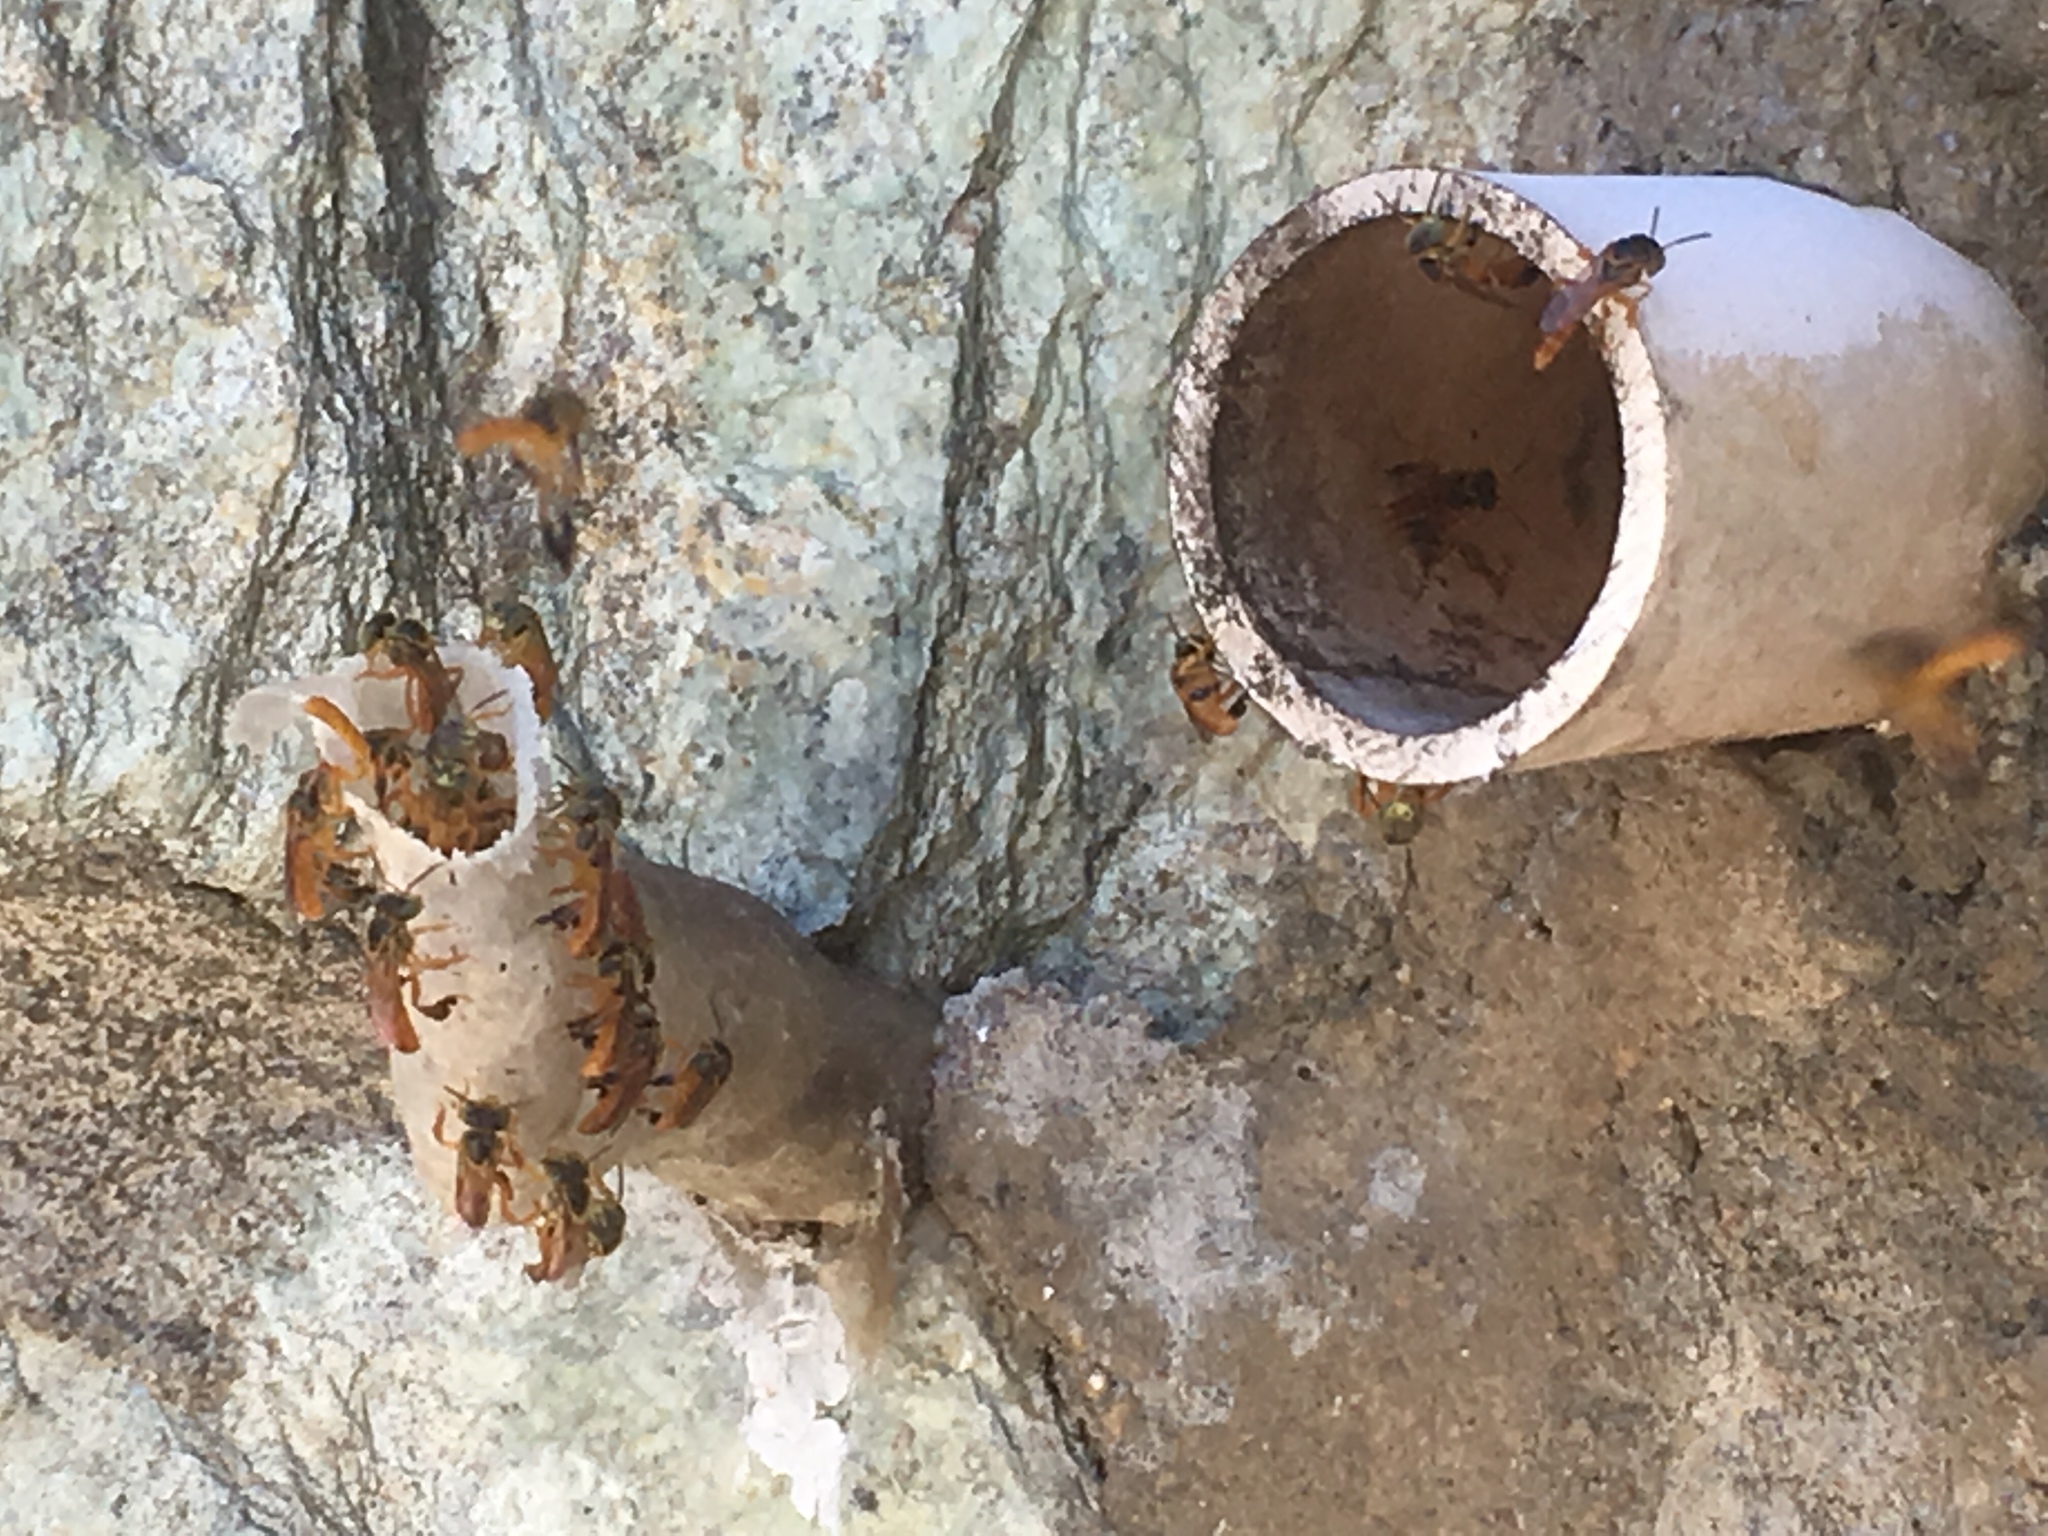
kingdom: Animalia
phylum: Arthropoda
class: Insecta
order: Hymenoptera
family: Apidae
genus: Tetragonisca
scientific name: Tetragonisca angustula
